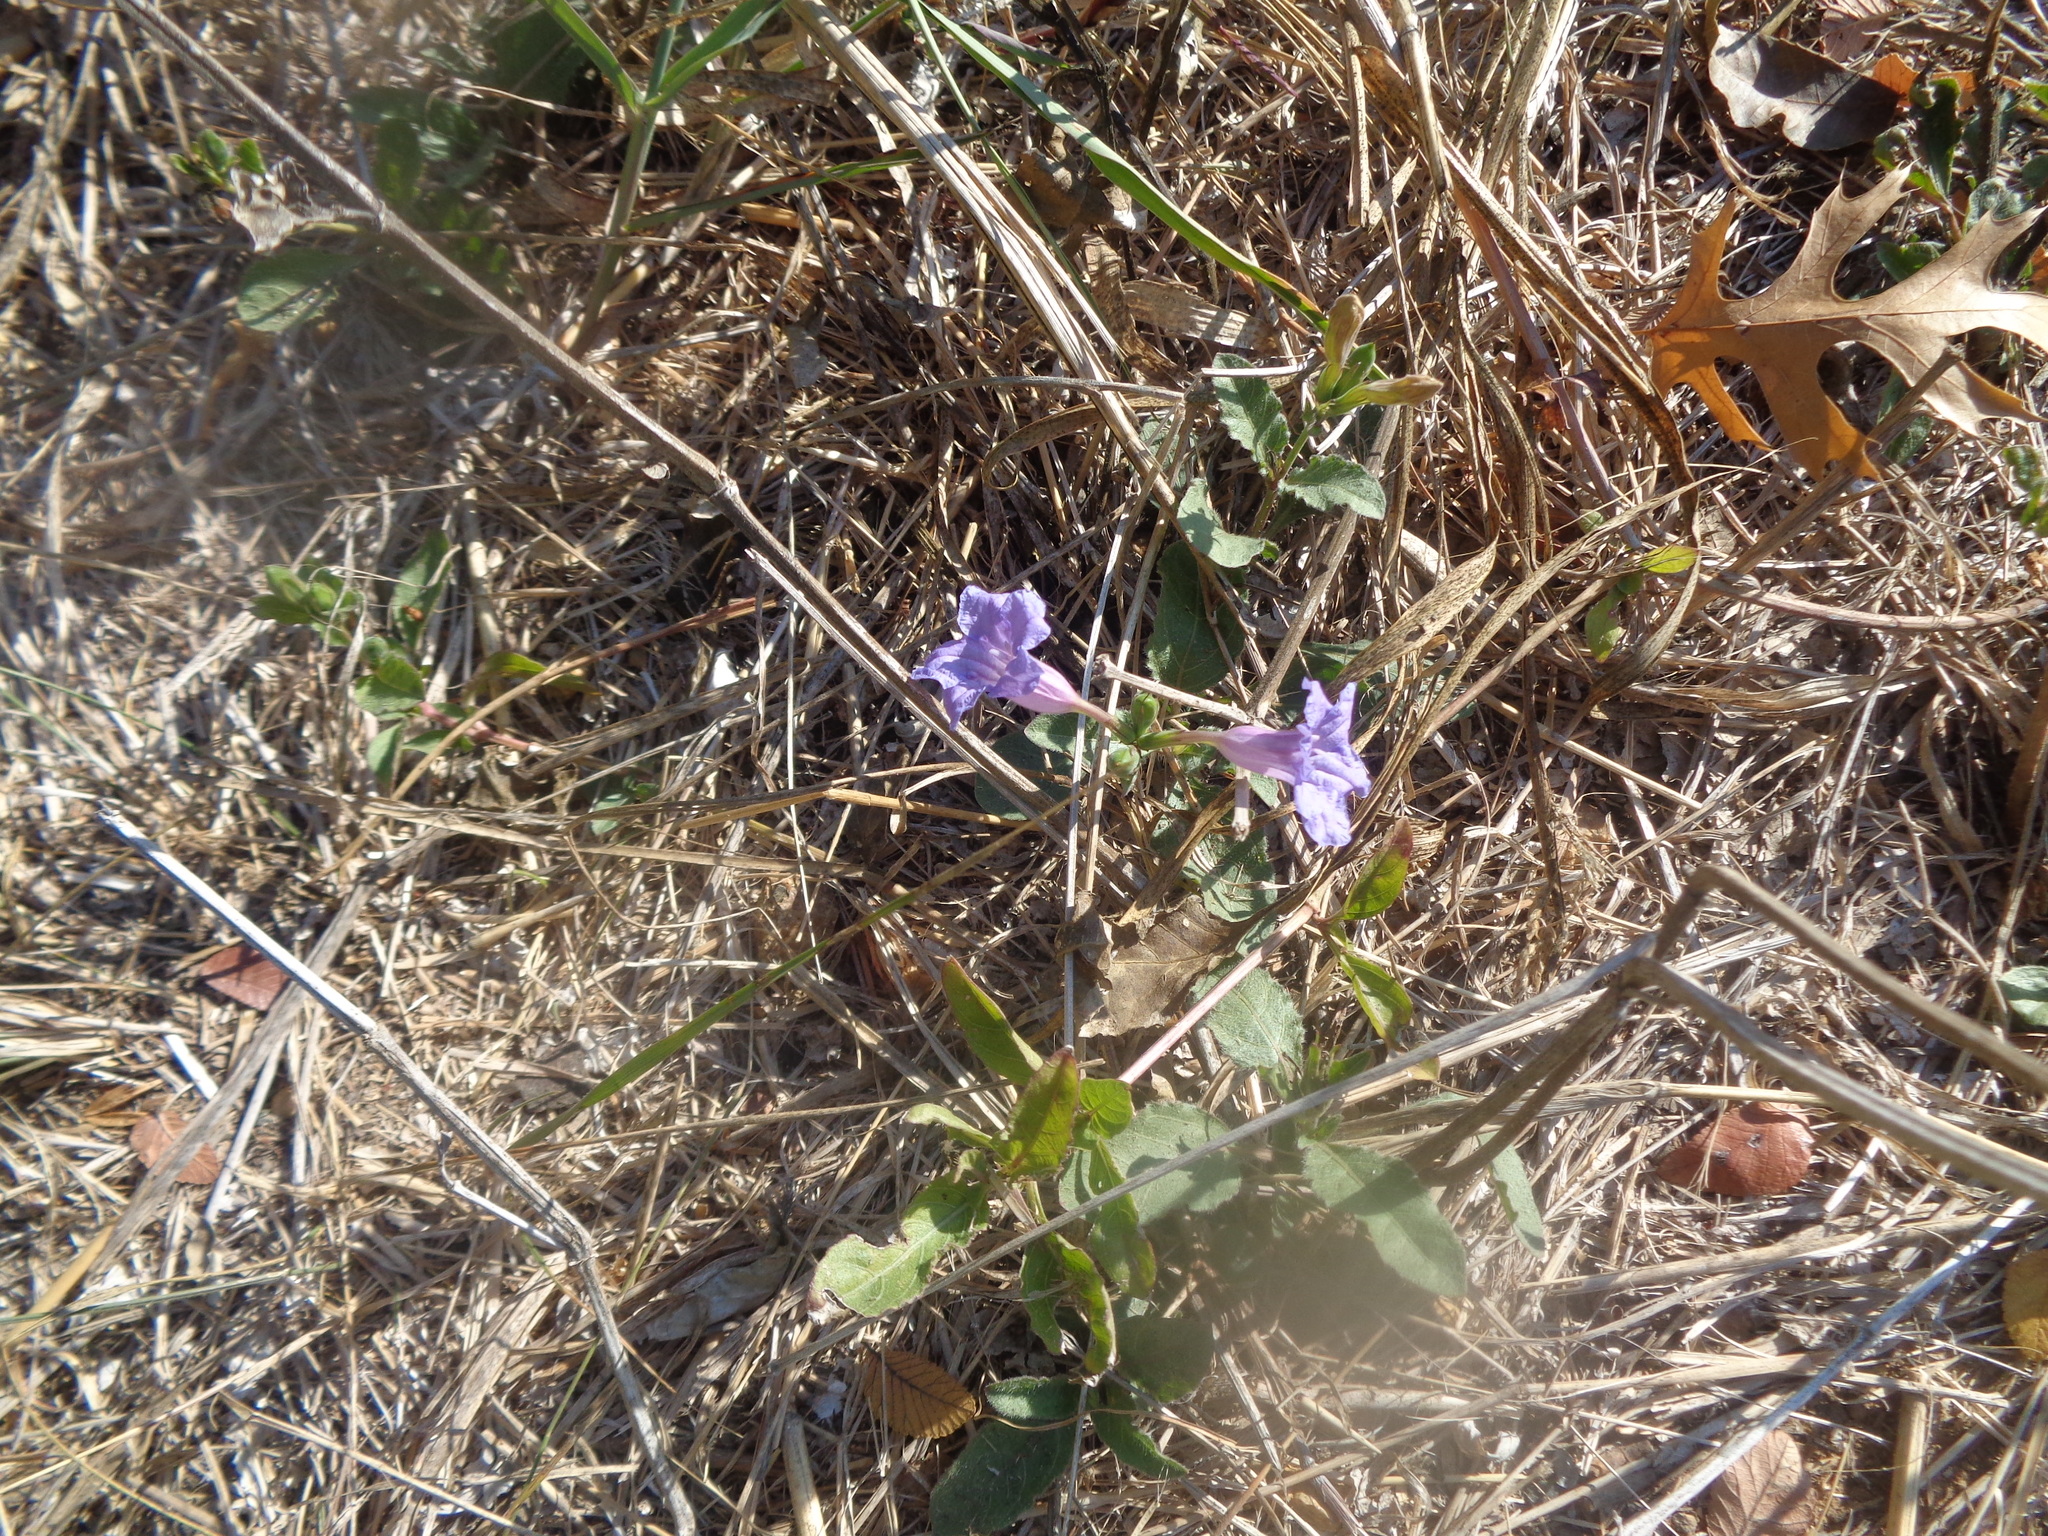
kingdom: Plantae
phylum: Tracheophyta
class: Magnoliopsida
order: Lamiales
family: Acanthaceae
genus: Ruellia
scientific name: Ruellia ciliatiflora
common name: Hairyflower wild petunia
